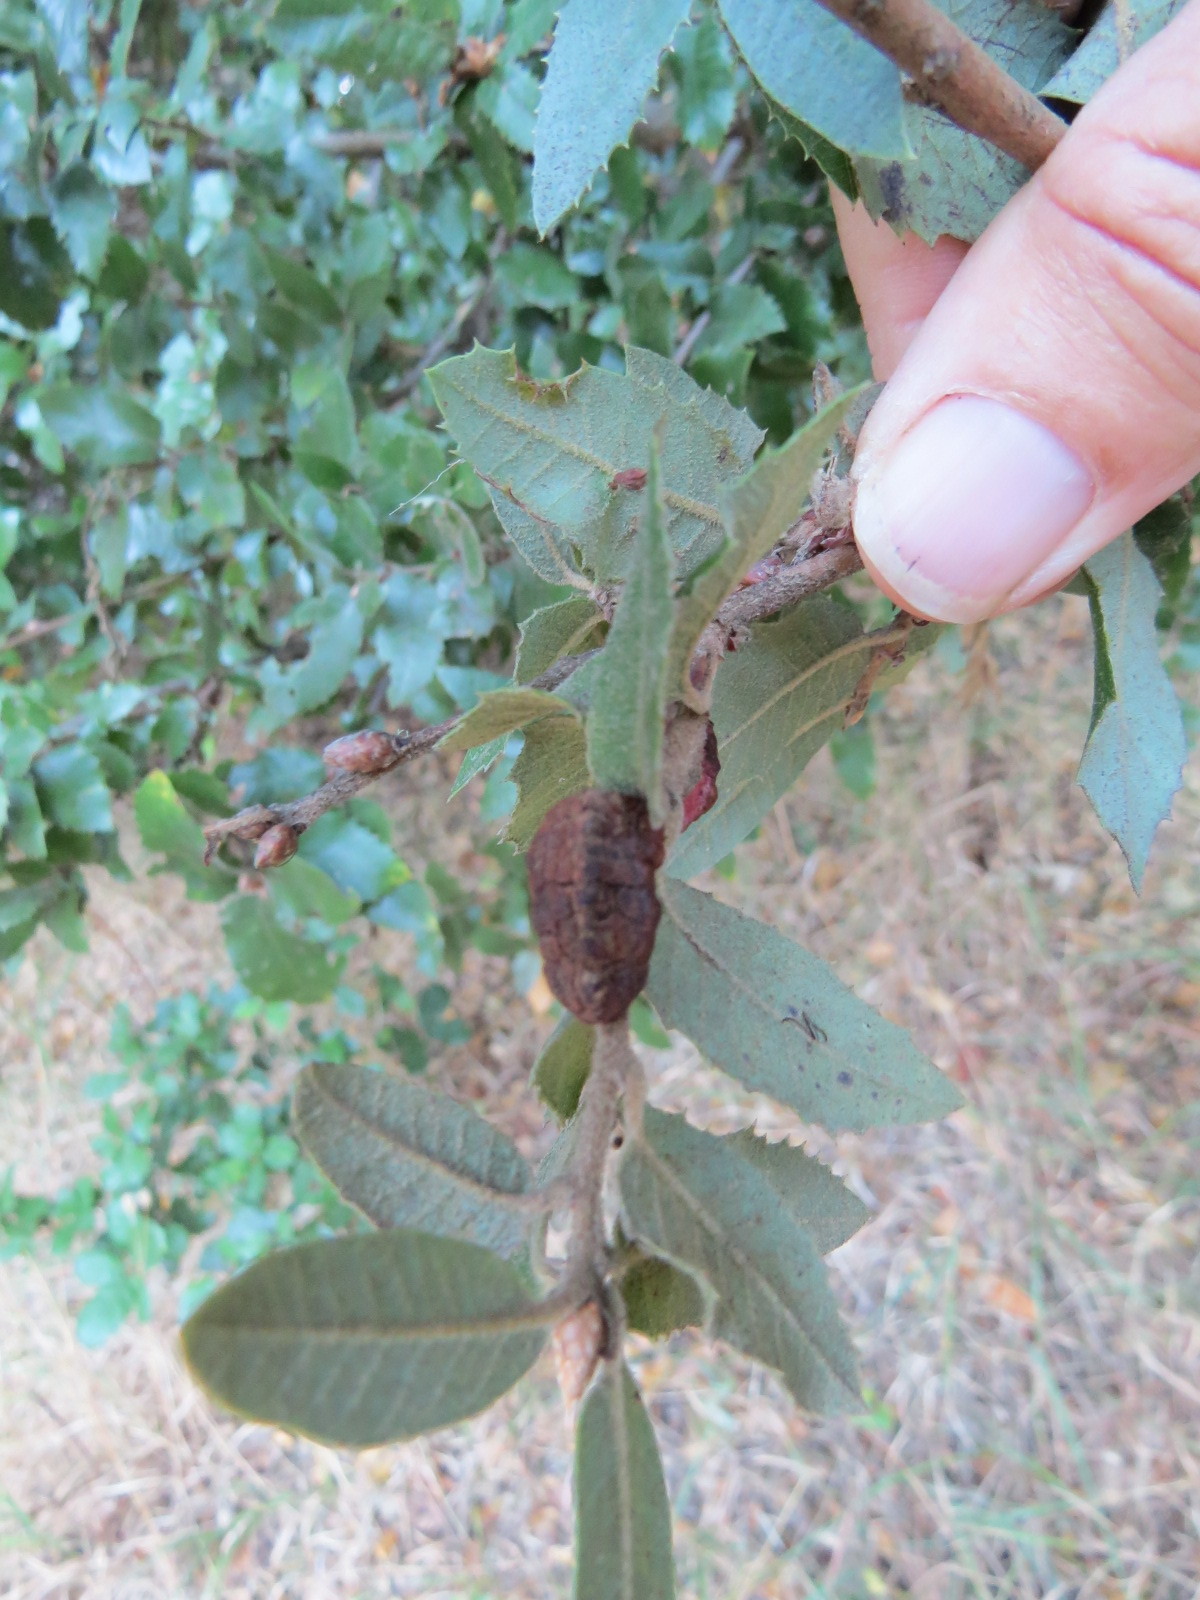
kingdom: Animalia
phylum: Arthropoda
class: Insecta
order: Hymenoptera
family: Cynipidae
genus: Disholandricus
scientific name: Disholandricus
